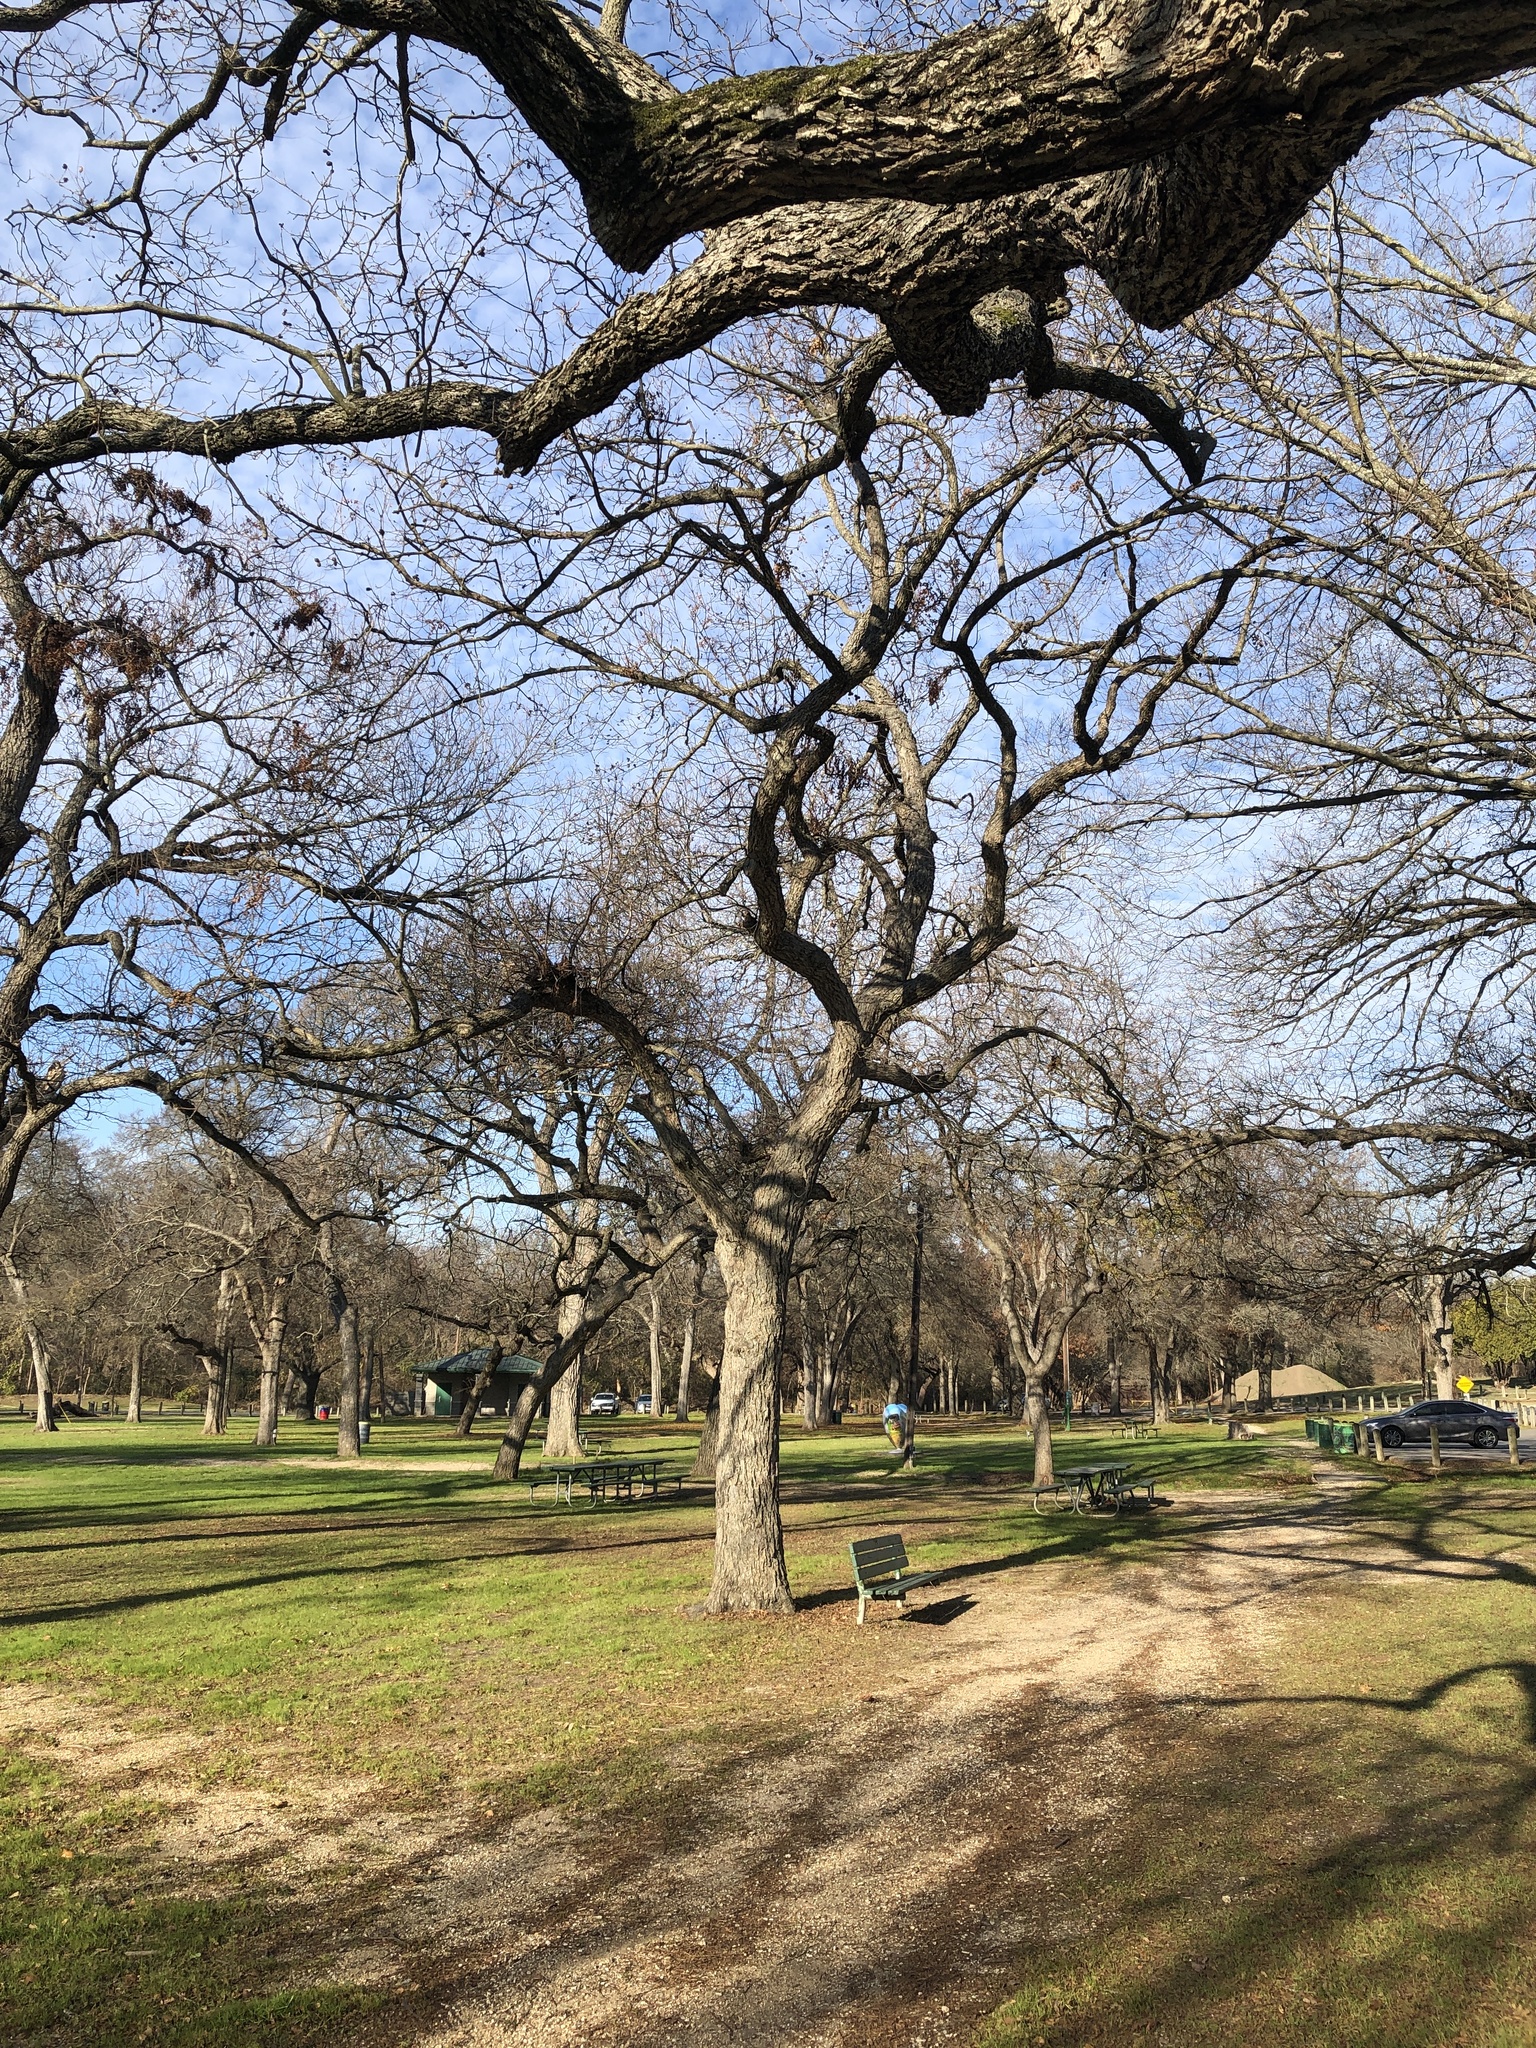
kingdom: Plantae
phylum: Tracheophyta
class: Magnoliopsida
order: Fagales
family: Juglandaceae
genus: Carya
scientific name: Carya illinoinensis
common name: Pecan
